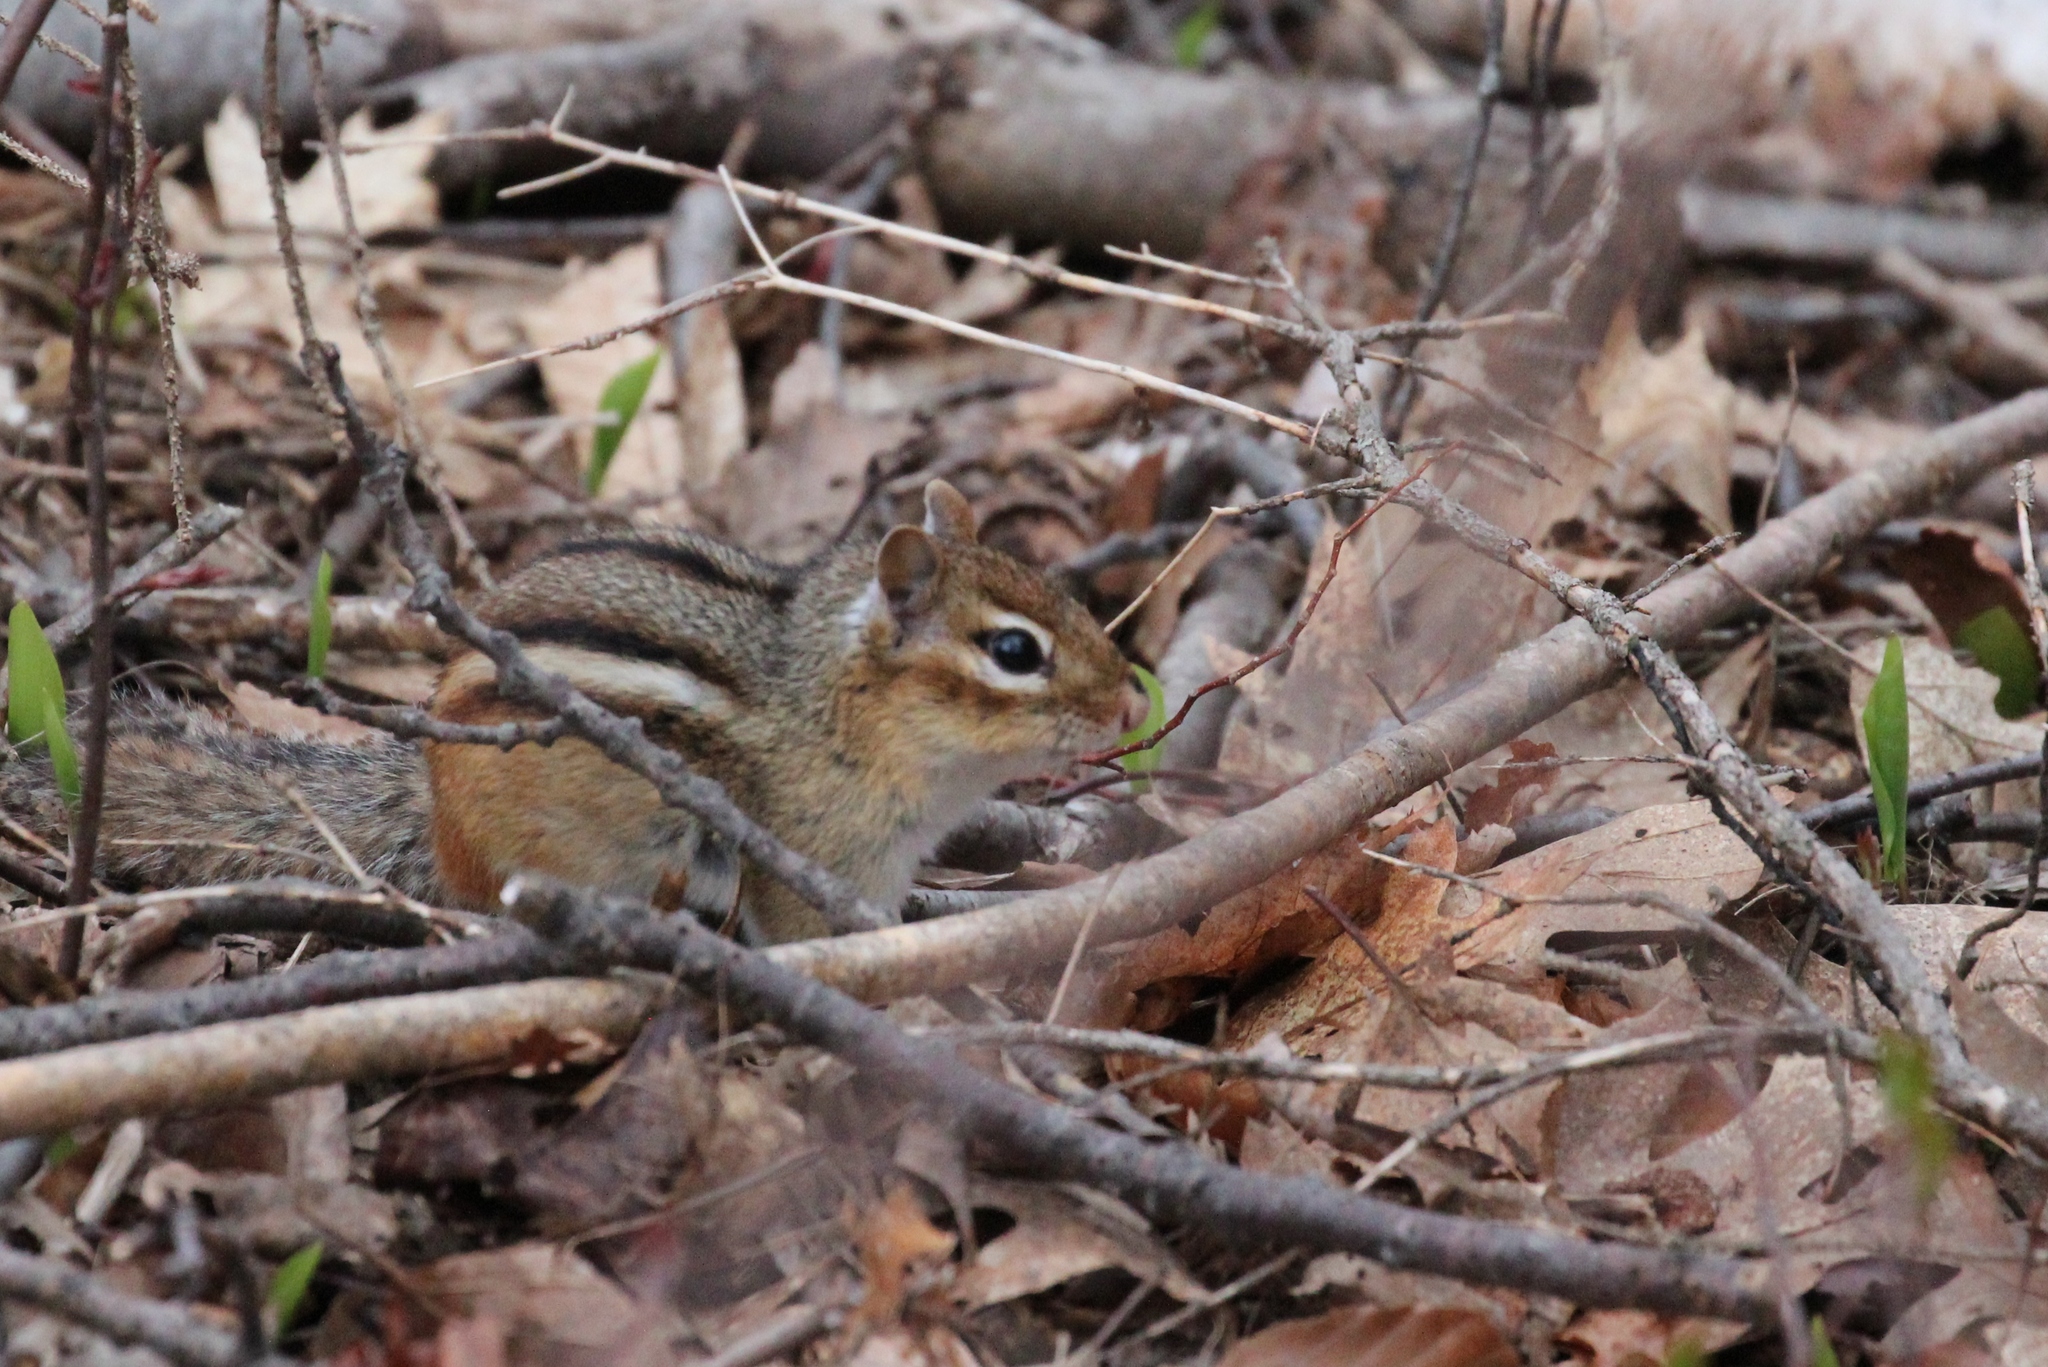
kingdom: Animalia
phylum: Chordata
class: Mammalia
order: Rodentia
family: Sciuridae
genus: Tamias
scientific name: Tamias striatus
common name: Eastern chipmunk
